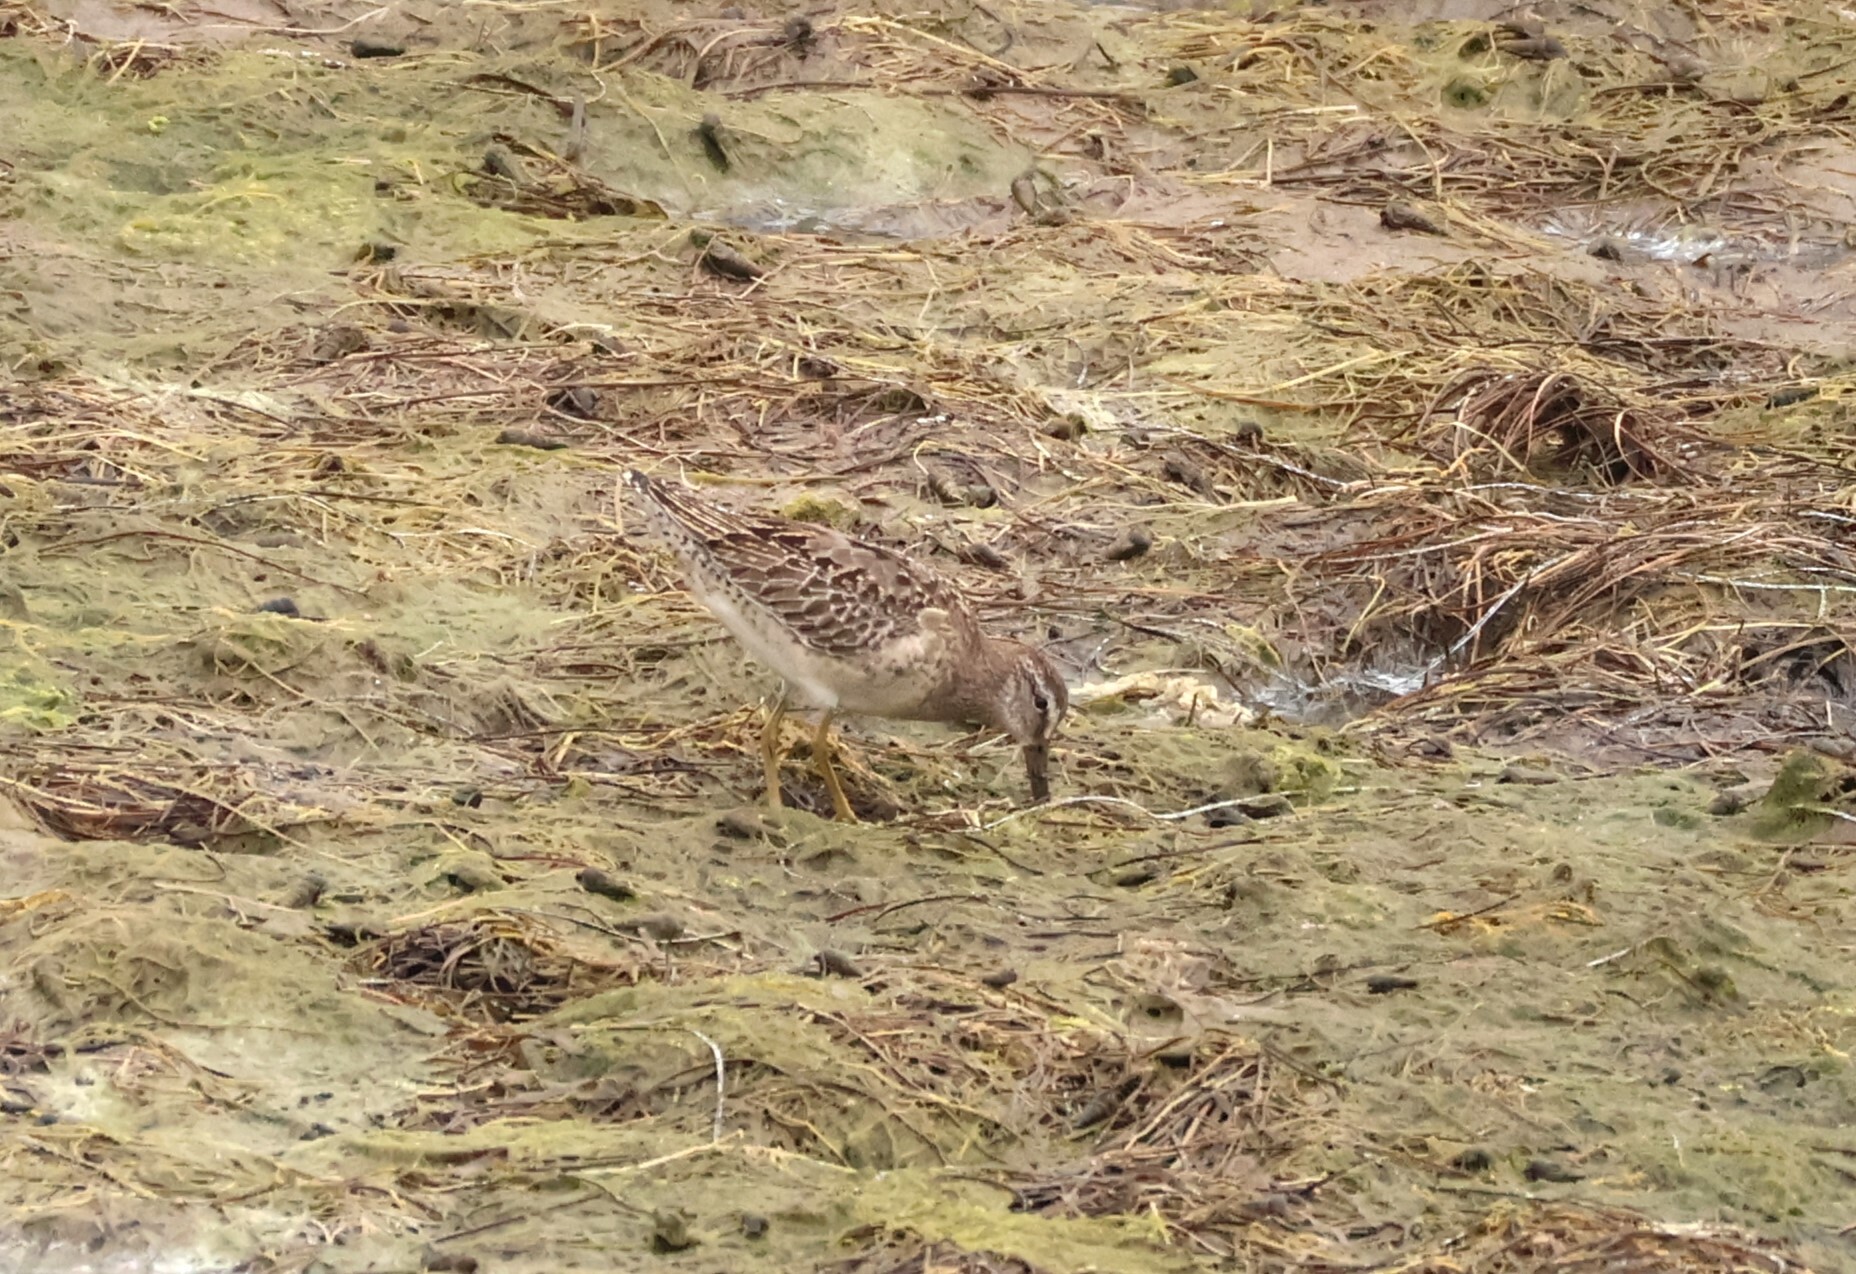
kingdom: Animalia
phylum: Chordata
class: Aves
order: Charadriiformes
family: Scolopacidae
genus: Limnodromus
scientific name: Limnodromus griseus
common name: Short-billed dowitcher
